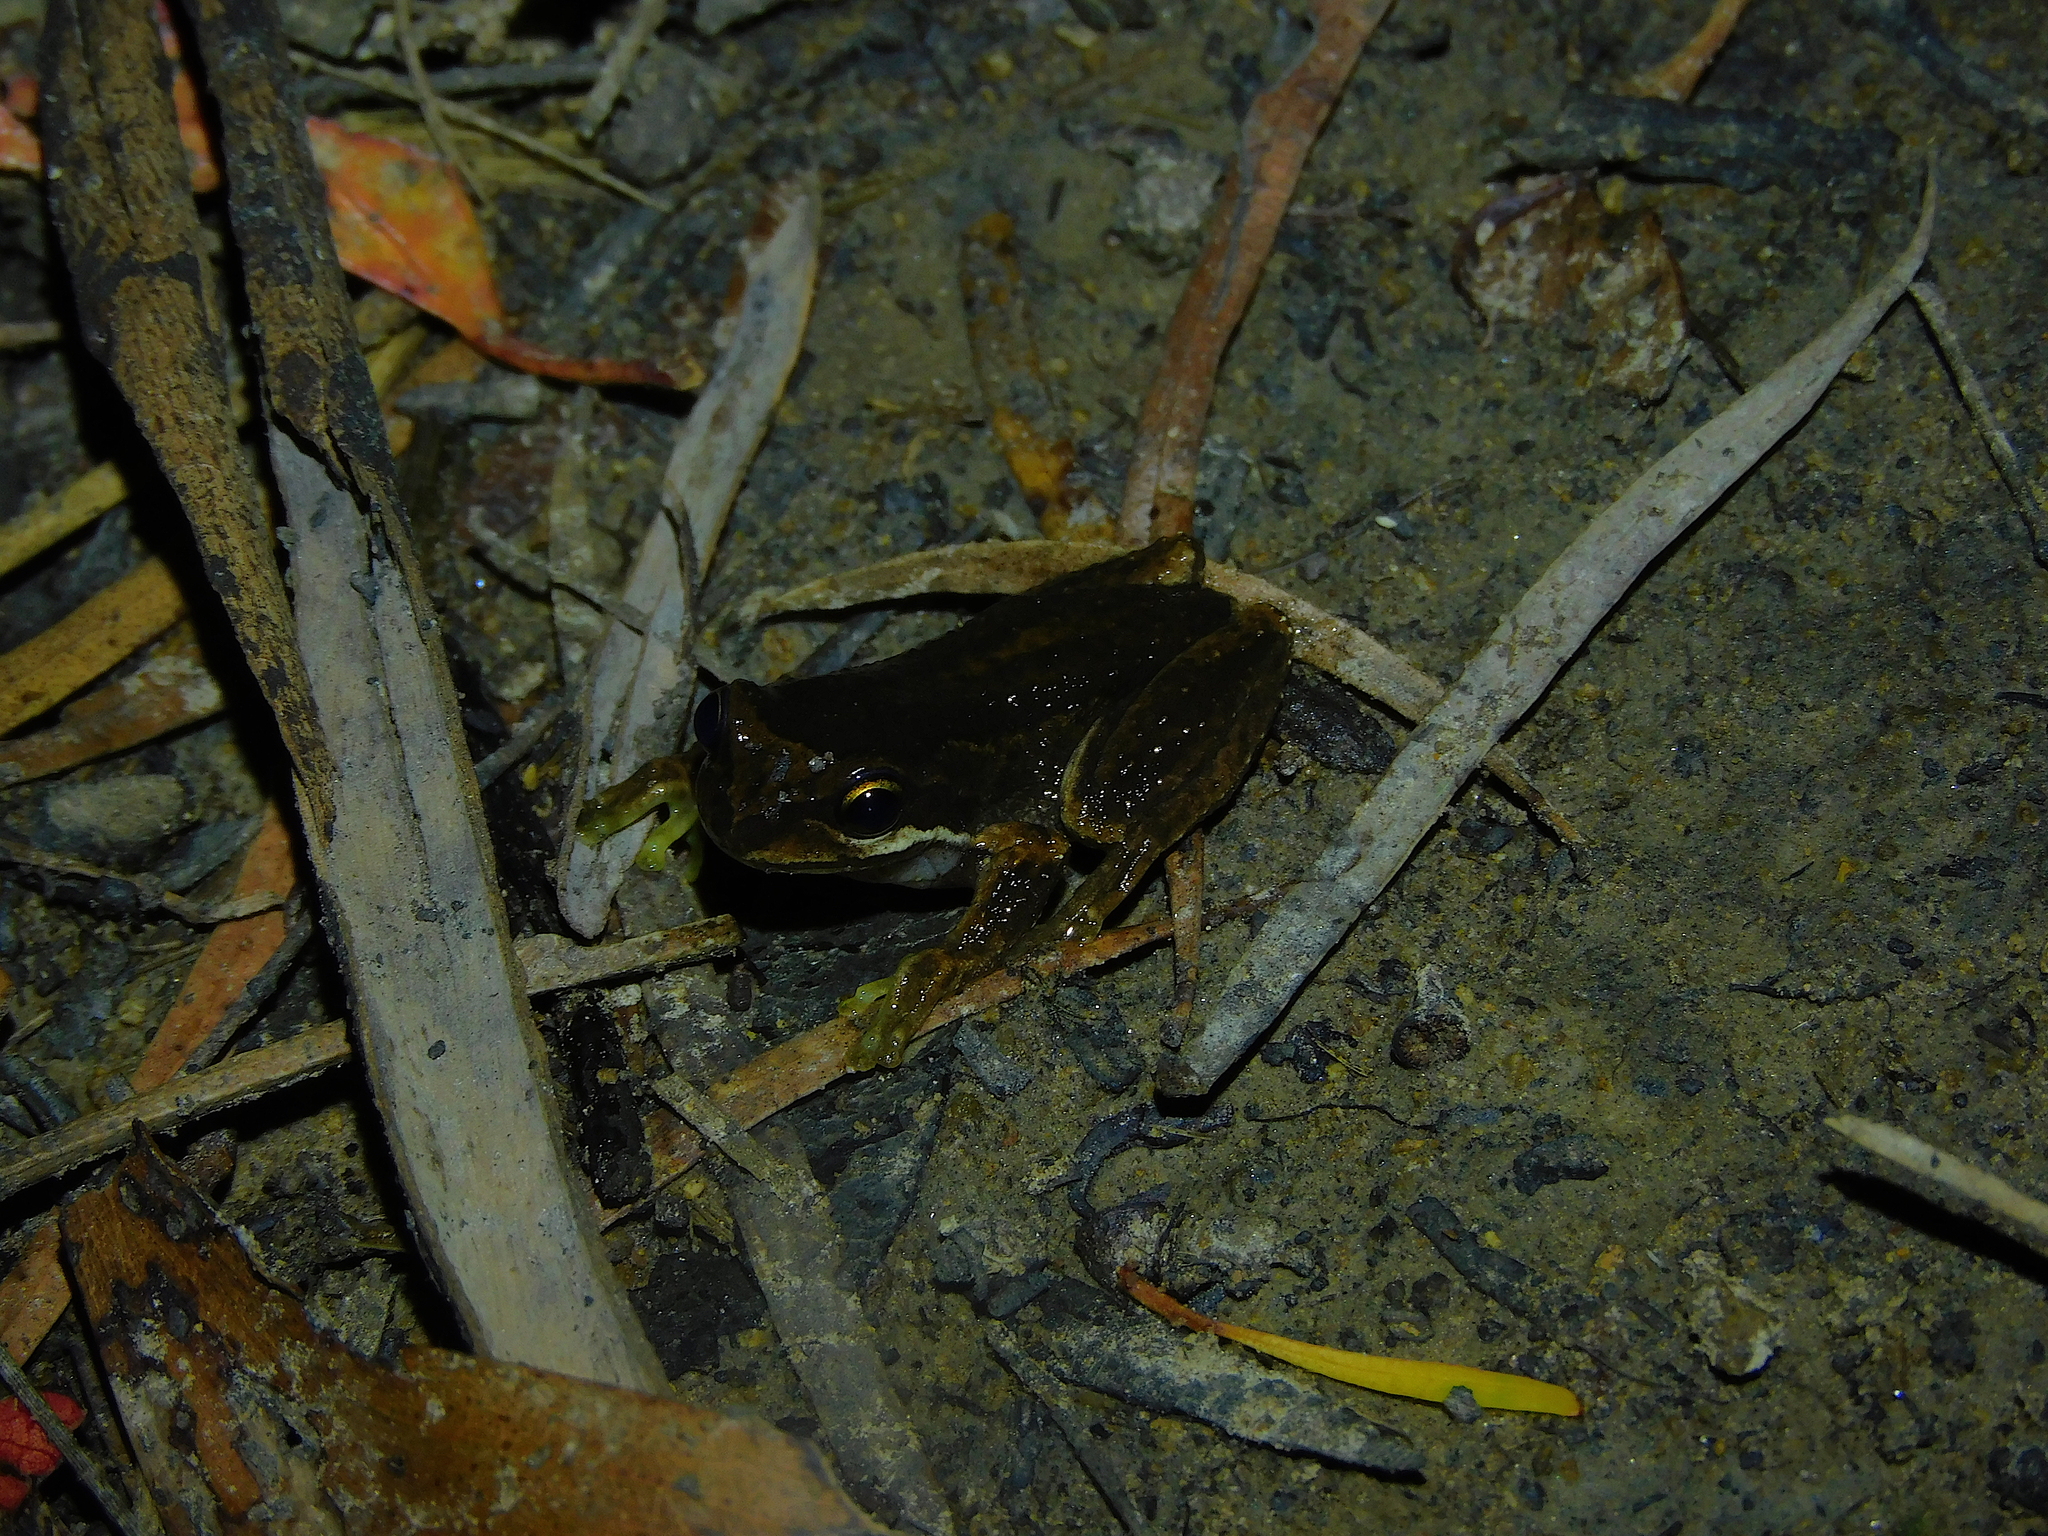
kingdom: Animalia
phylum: Chordata
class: Amphibia
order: Anura
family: Pelodryadidae
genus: Litoria
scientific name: Litoria ewingii
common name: Southern brown tree frog
